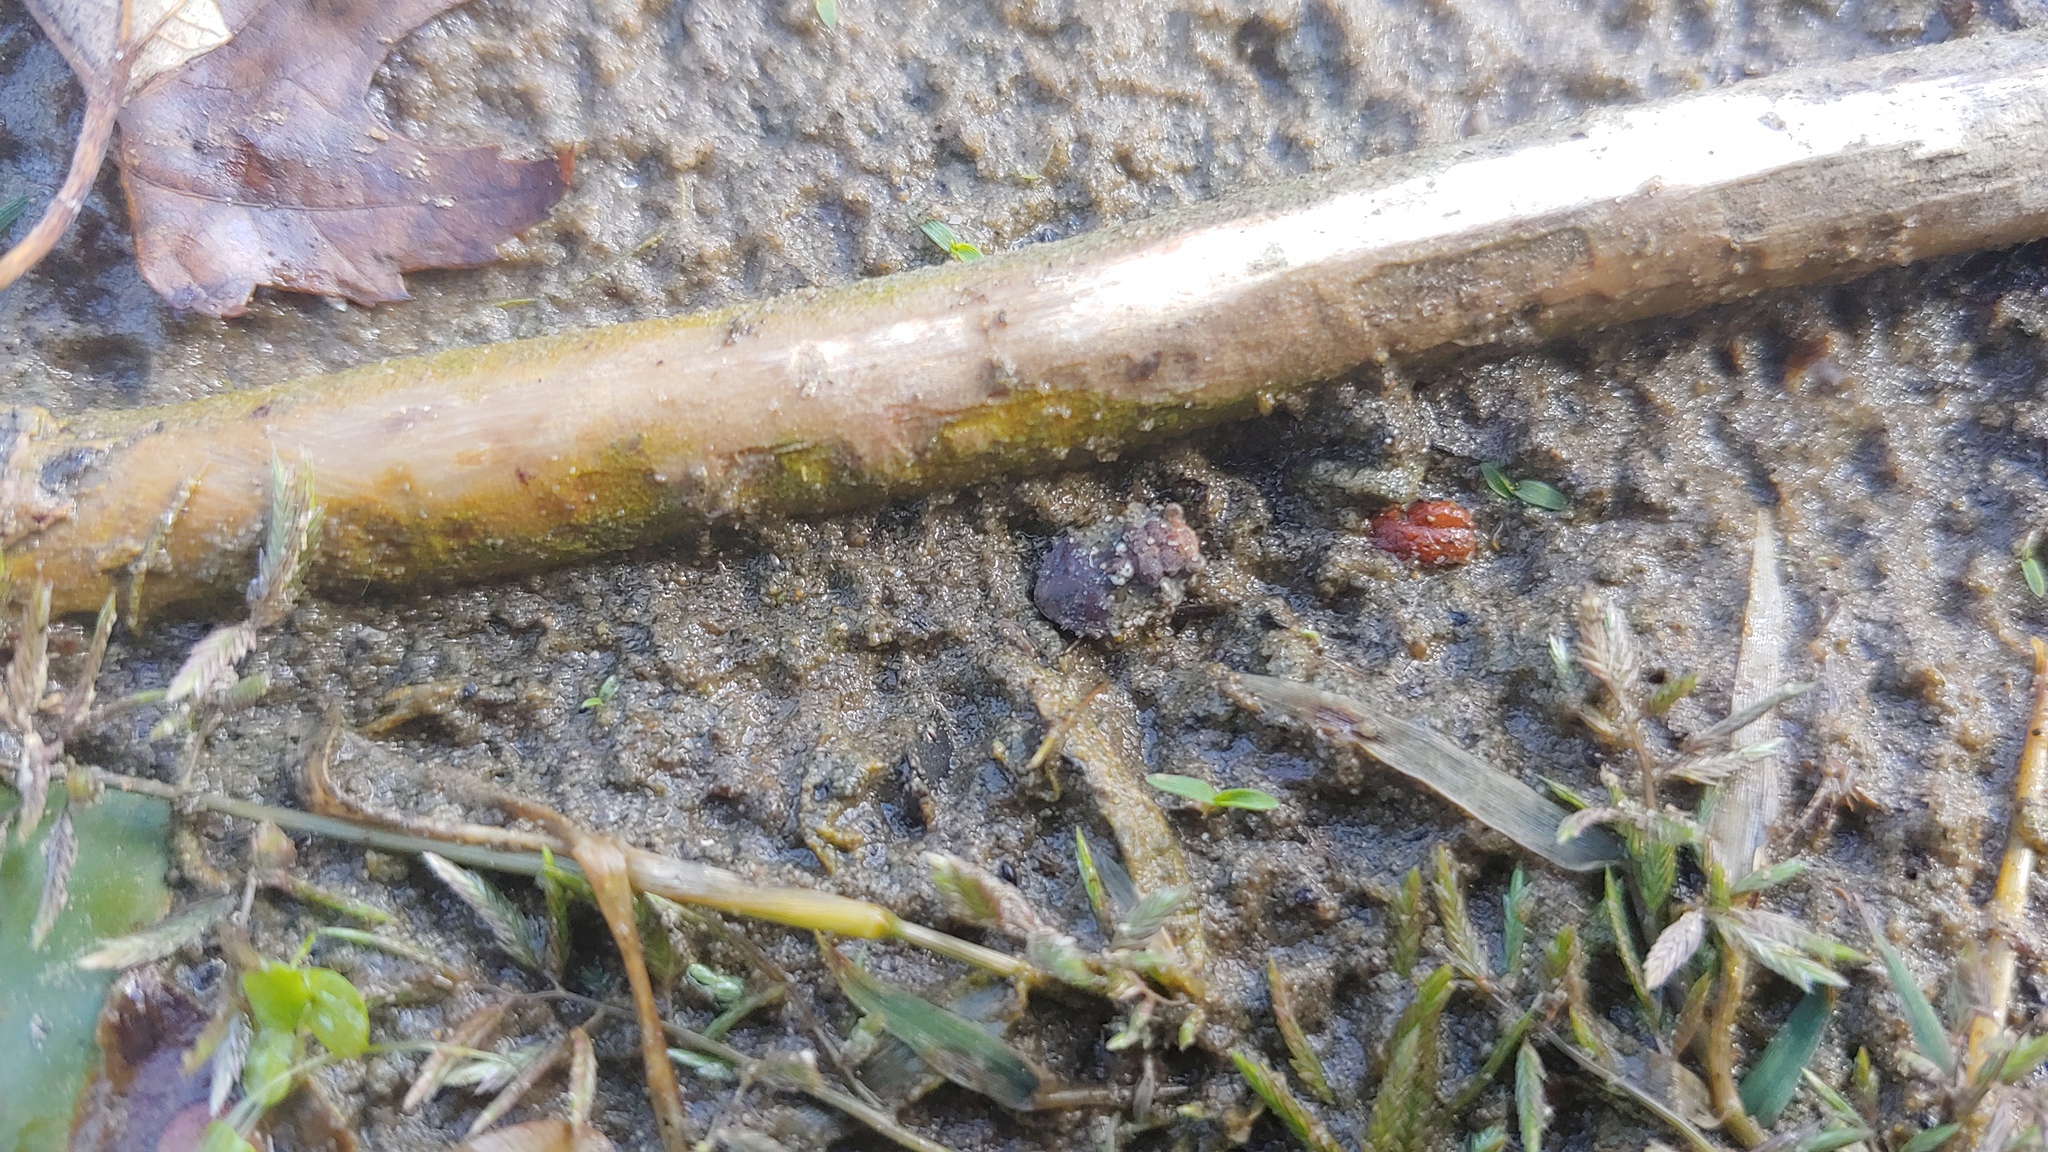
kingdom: Animalia
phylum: Arthropoda
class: Insecta
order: Hemiptera
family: Gelastocoridae
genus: Gelastocoris
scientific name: Gelastocoris oculatus
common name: Toad bug
